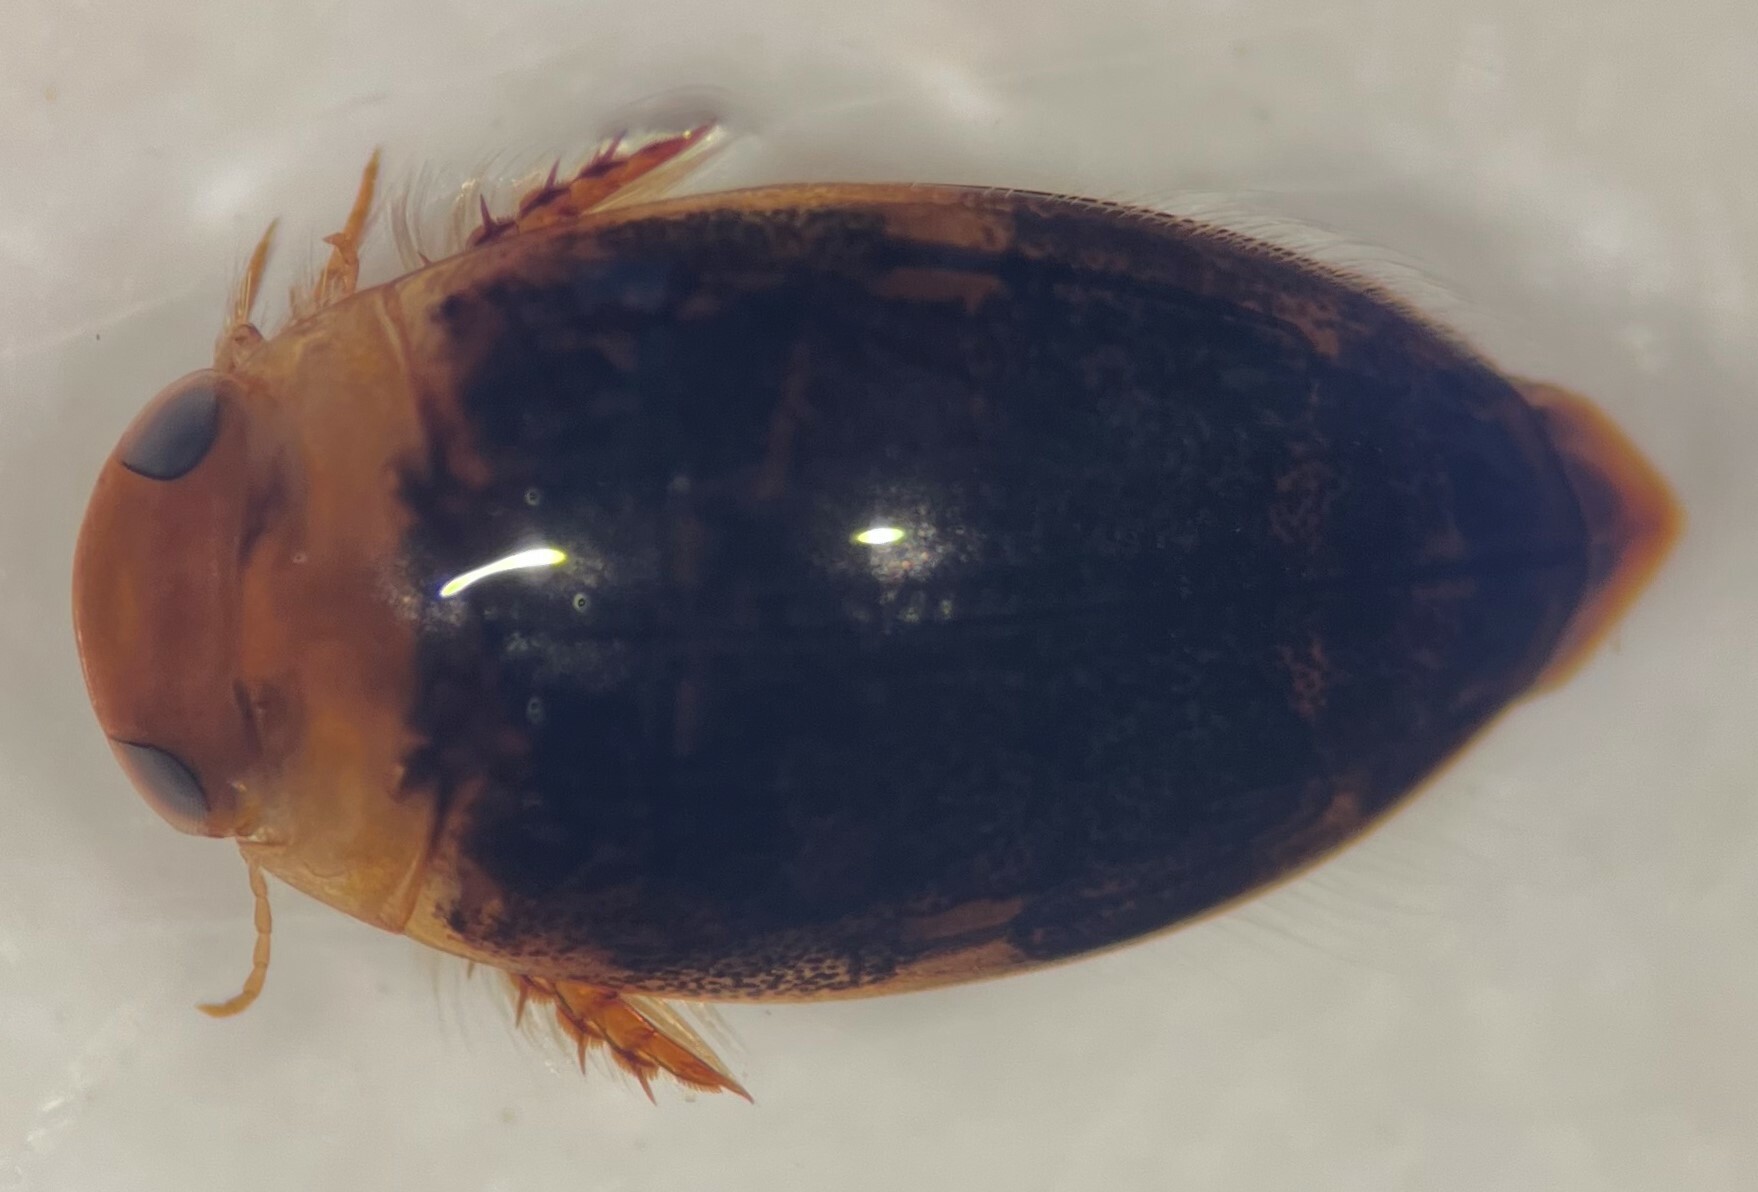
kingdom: Animalia
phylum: Arthropoda
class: Insecta
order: Coleoptera
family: Dytiscidae
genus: Laccophilus
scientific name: Laccophilus proximus
